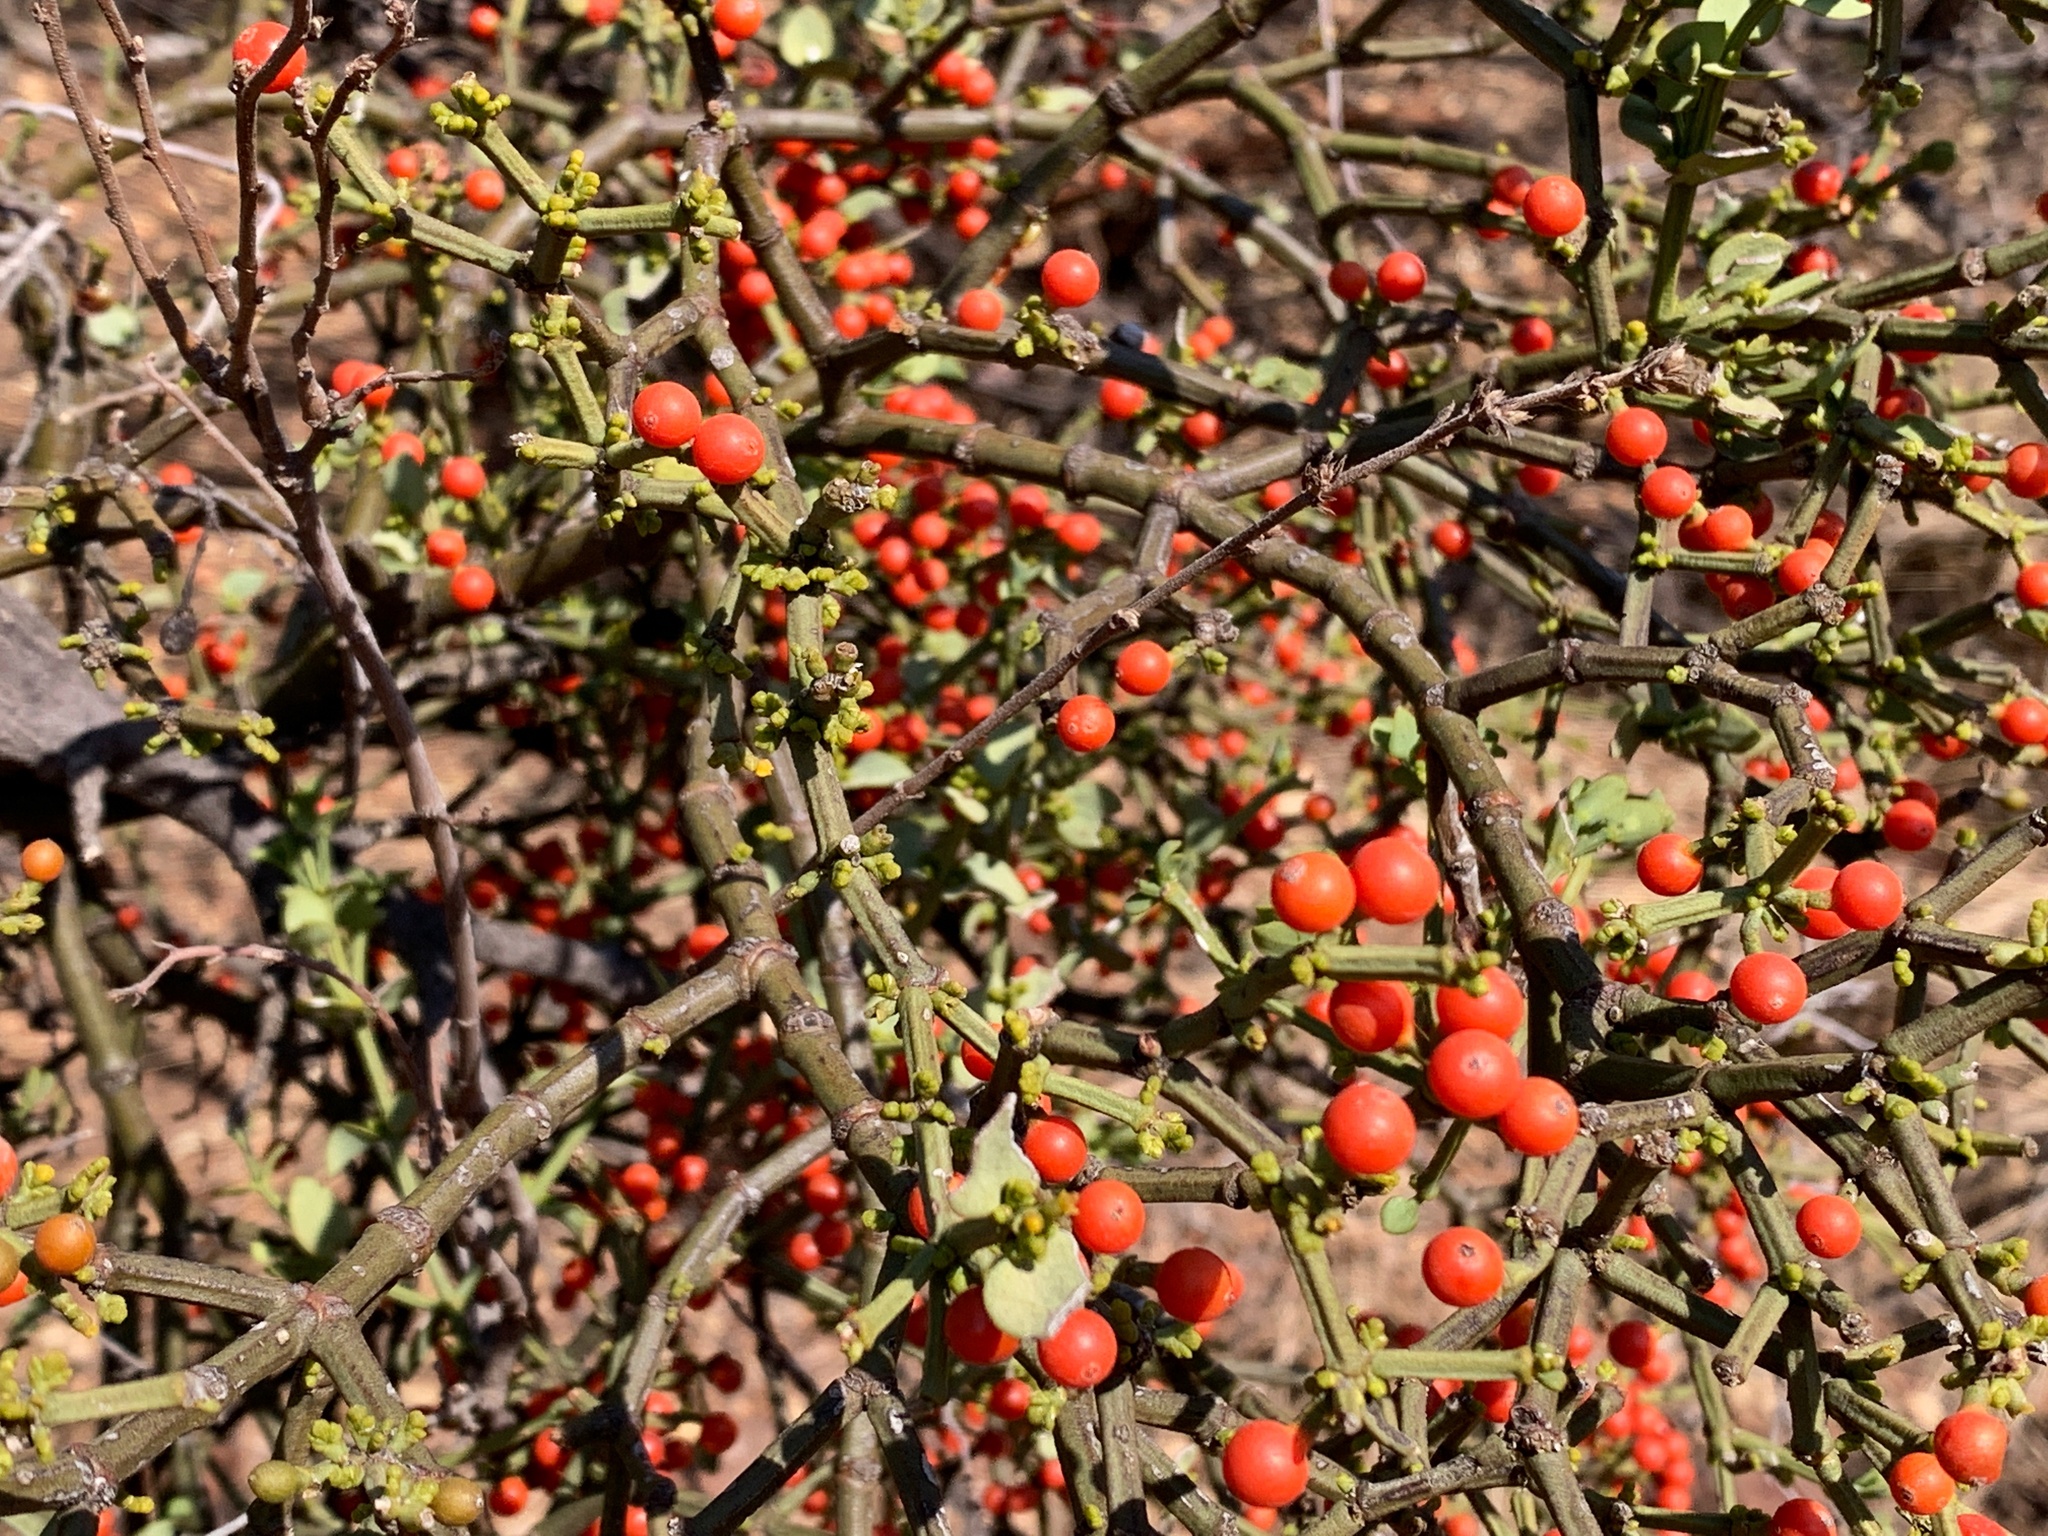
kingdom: Plantae
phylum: Tracheophyta
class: Magnoliopsida
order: Santalales
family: Viscaceae
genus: Viscum
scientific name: Viscum rotundifolium
